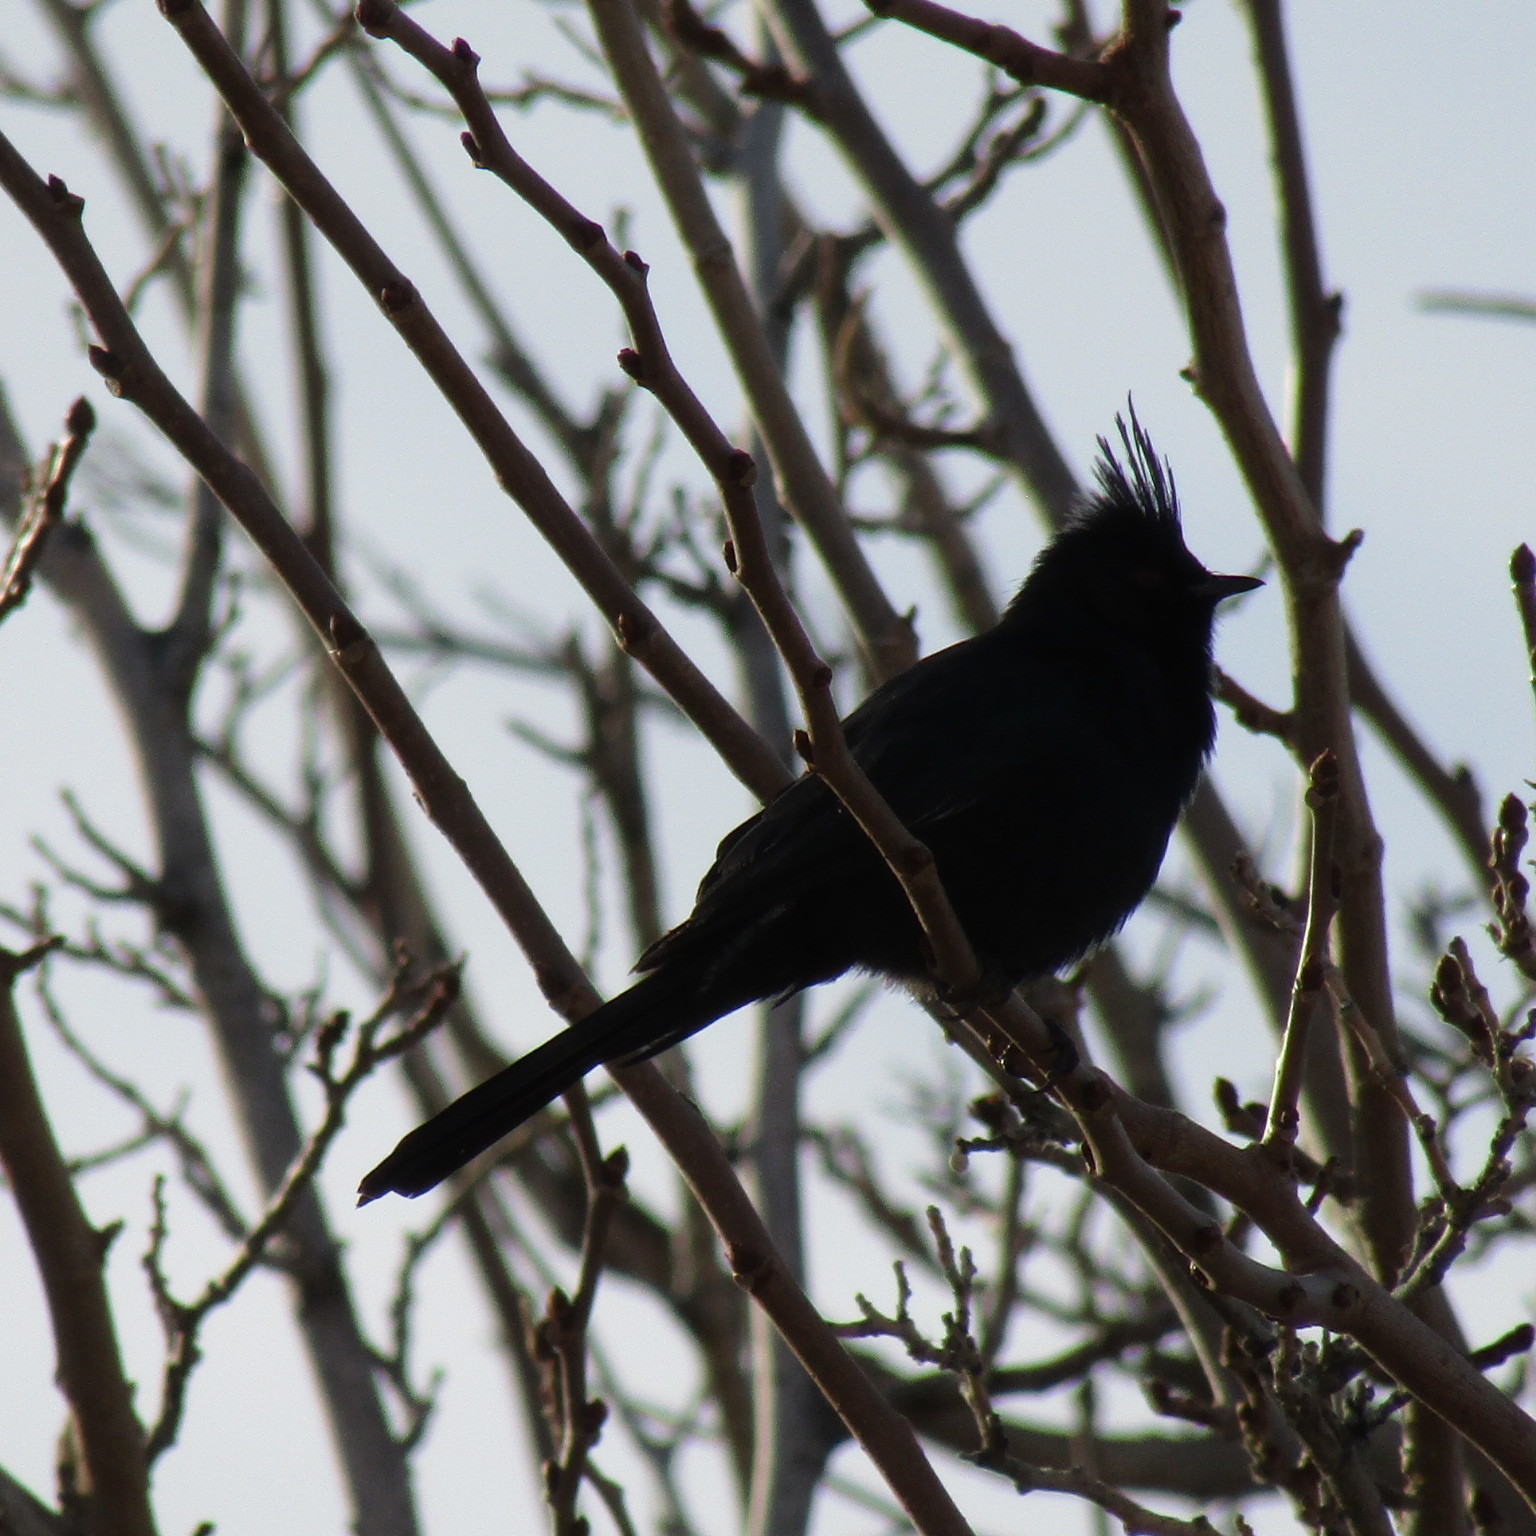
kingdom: Animalia
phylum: Chordata
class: Aves
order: Passeriformes
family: Ptilogonatidae
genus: Phainopepla
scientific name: Phainopepla nitens
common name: Phainopepla
